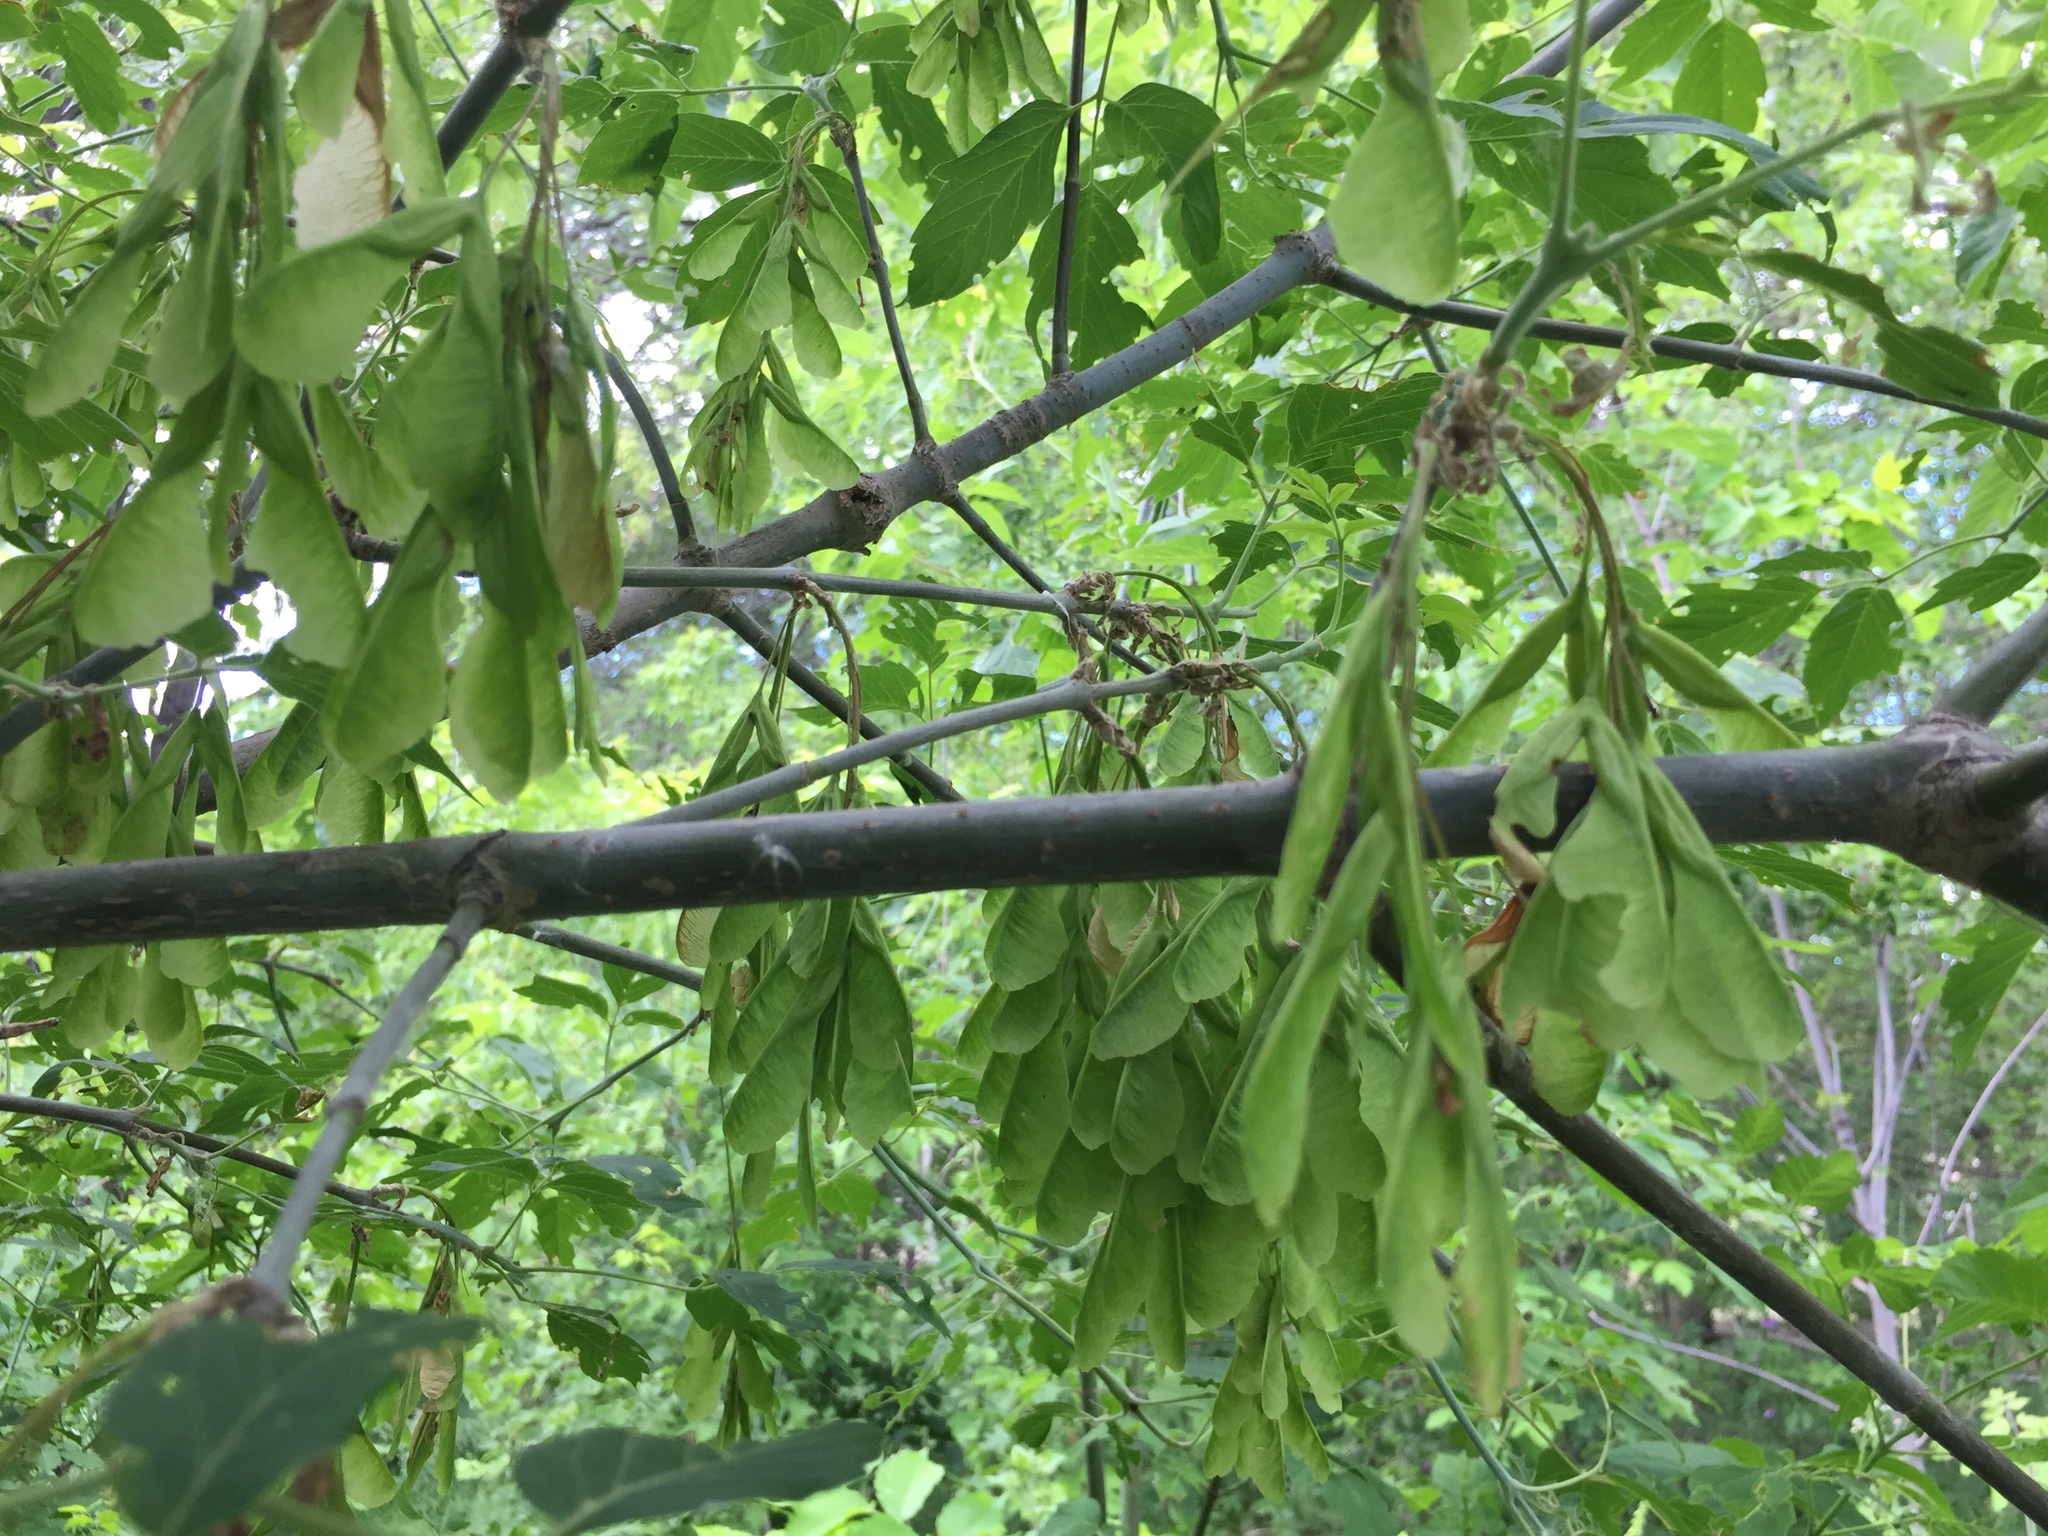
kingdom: Plantae
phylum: Tracheophyta
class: Magnoliopsida
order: Sapindales
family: Sapindaceae
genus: Acer
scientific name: Acer negundo
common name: Ashleaf maple
